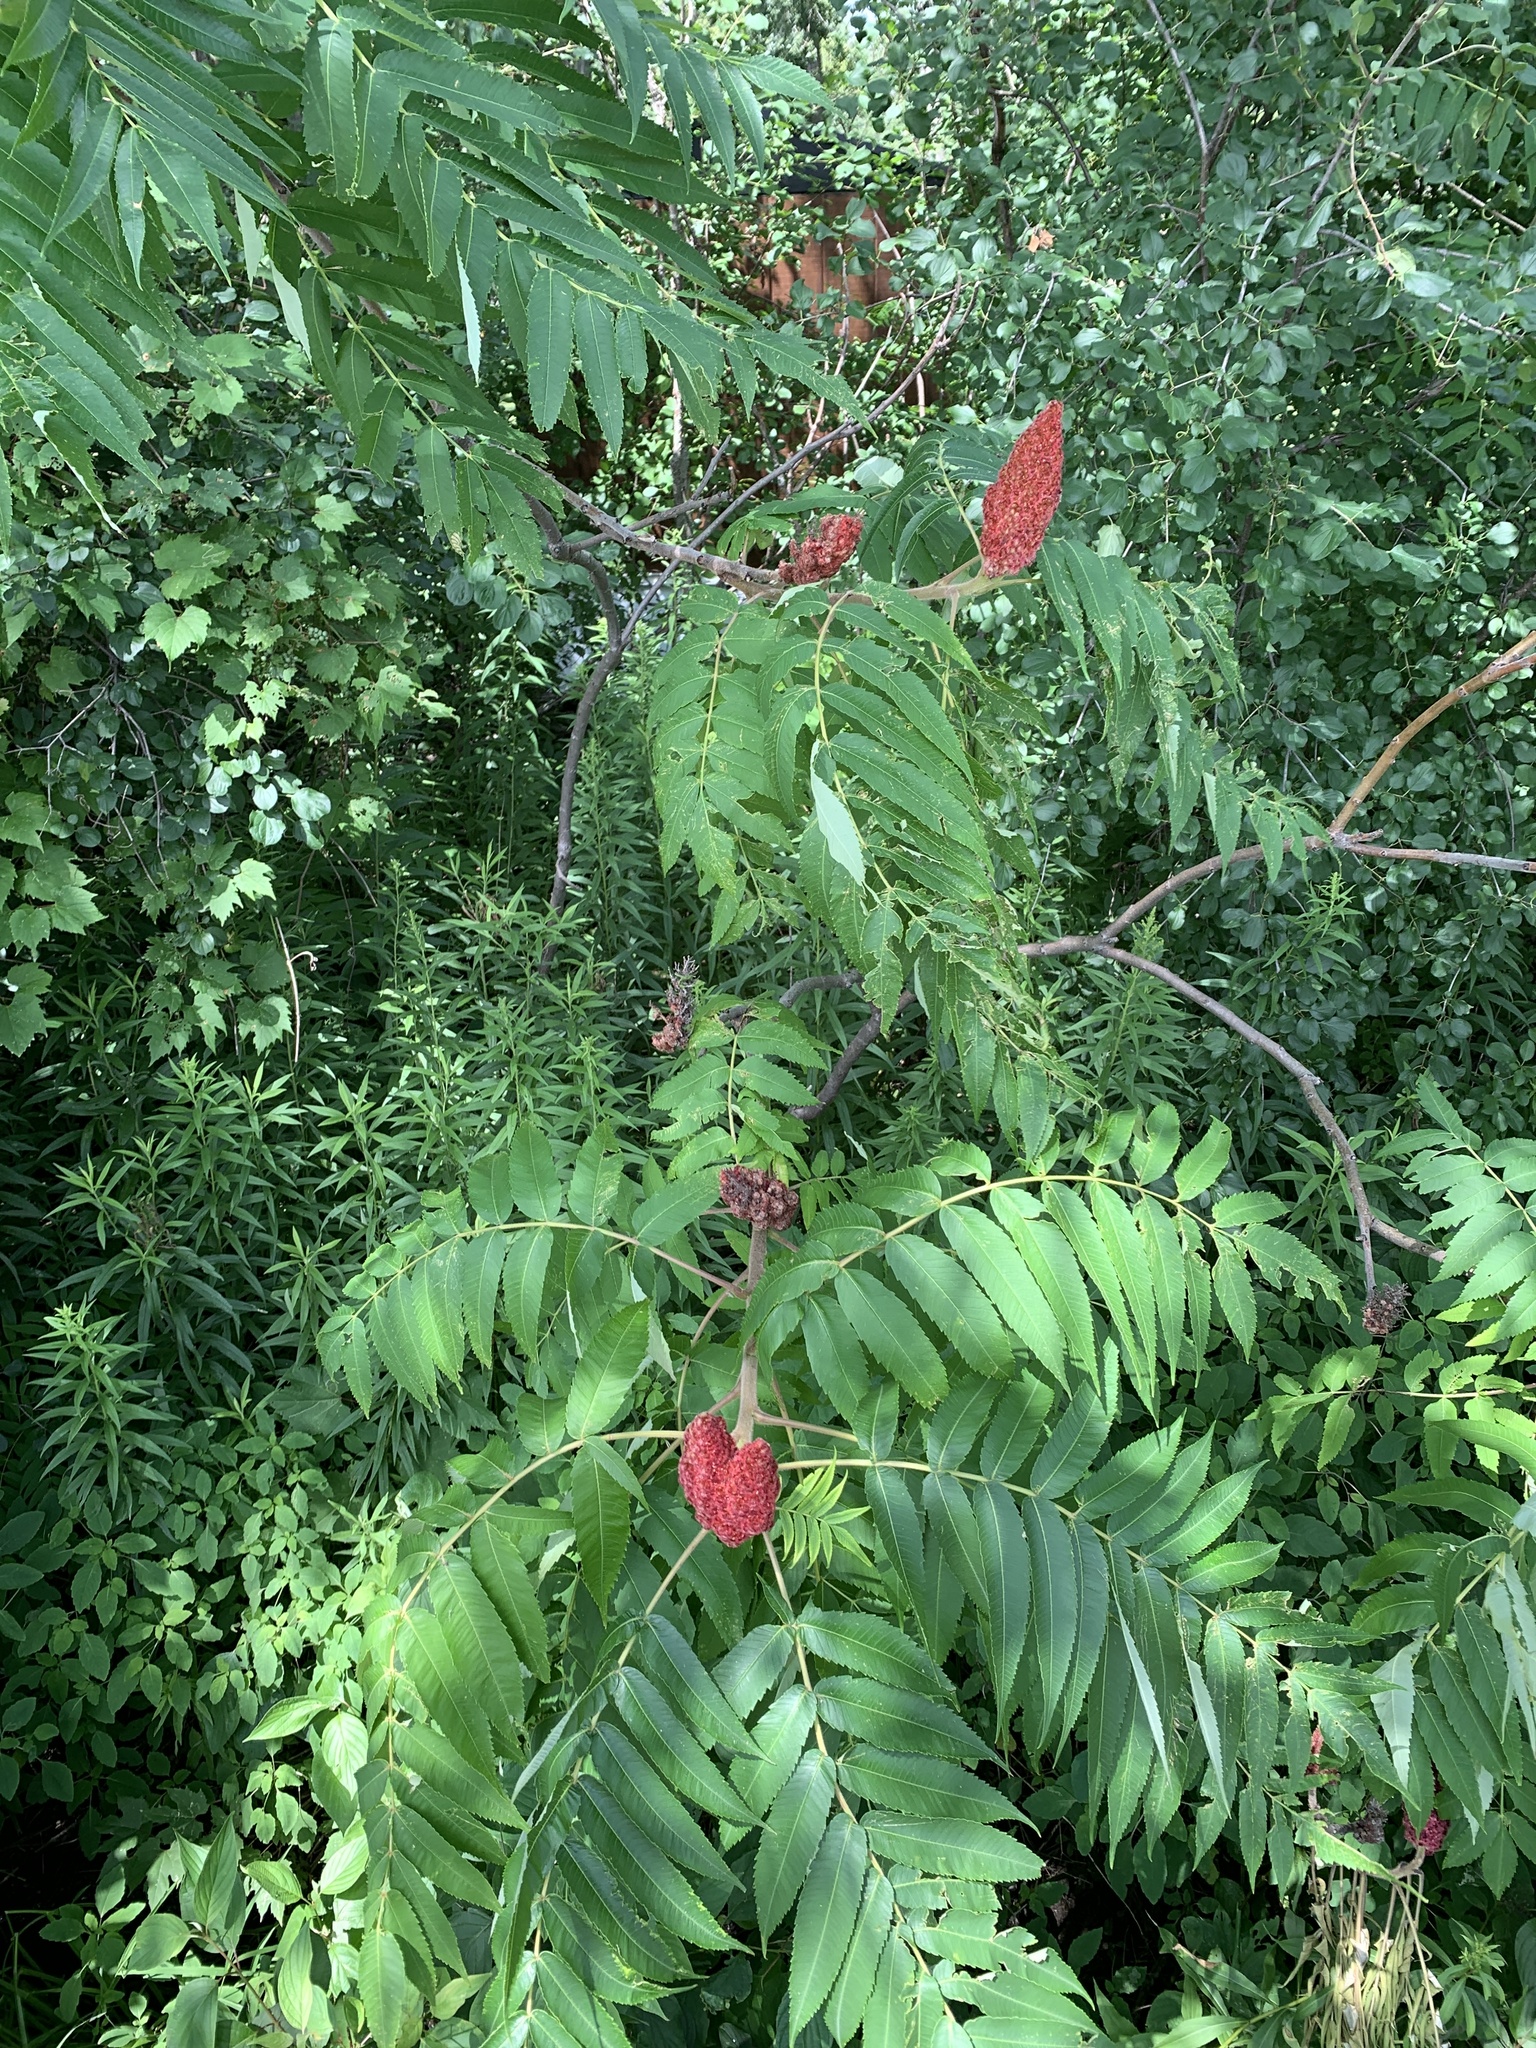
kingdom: Plantae
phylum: Tracheophyta
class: Magnoliopsida
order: Sapindales
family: Anacardiaceae
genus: Rhus
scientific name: Rhus typhina
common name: Staghorn sumac
